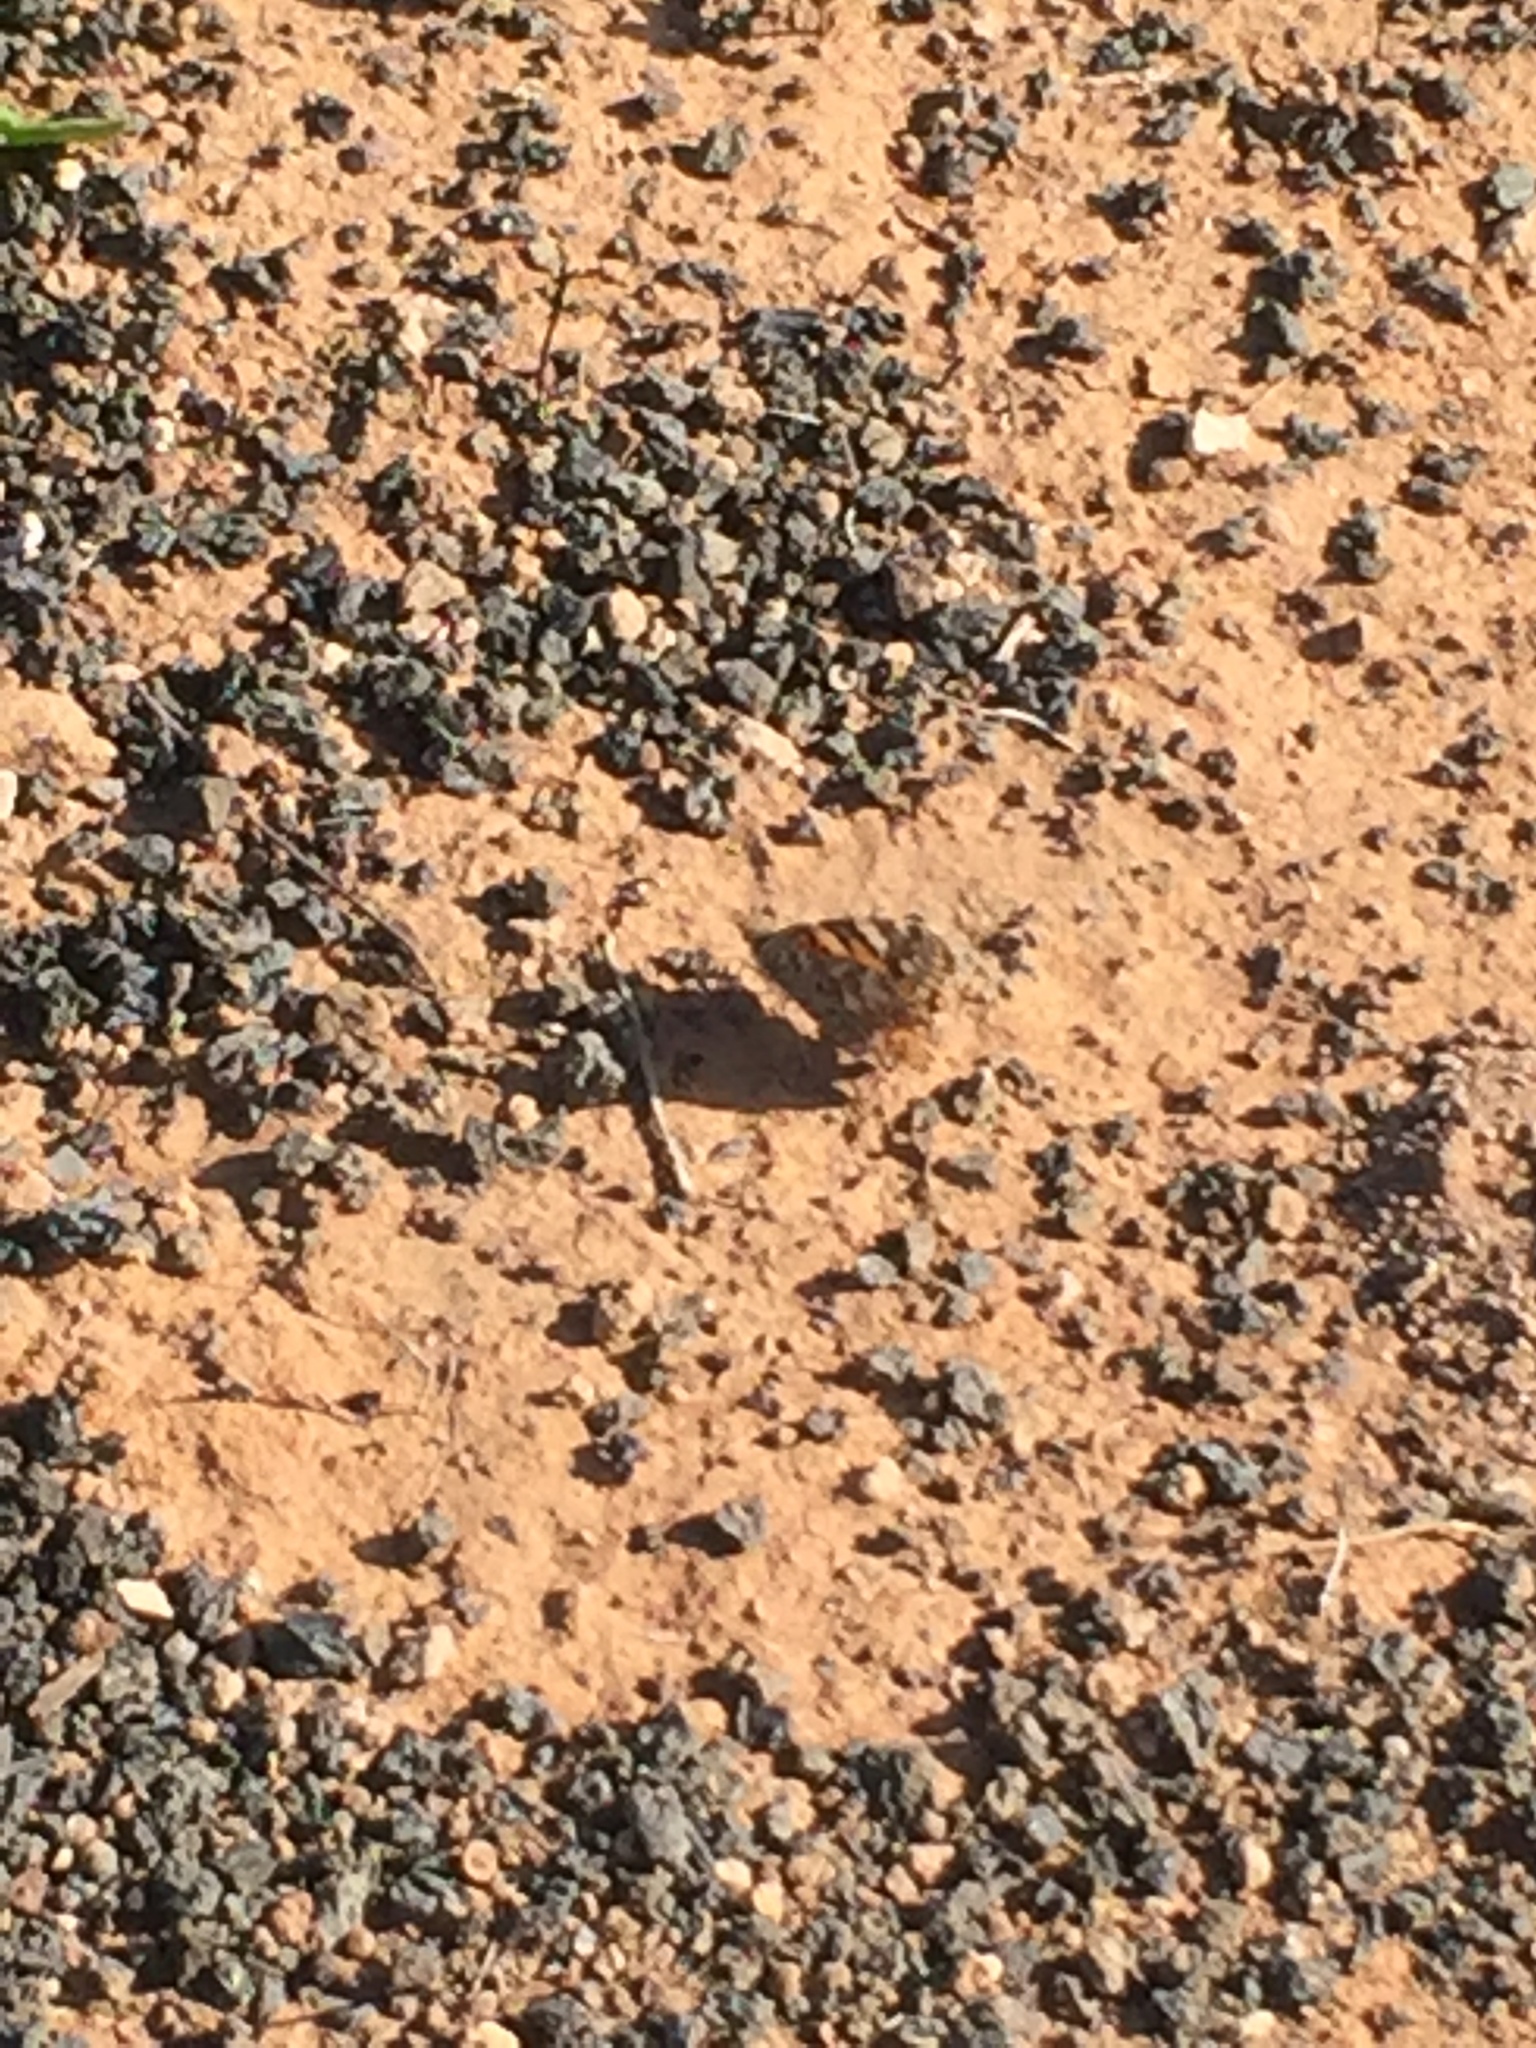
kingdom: Animalia
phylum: Arthropoda
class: Insecta
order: Lepidoptera
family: Nymphalidae
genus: Vanessa
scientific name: Vanessa cardui
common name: Painted lady
